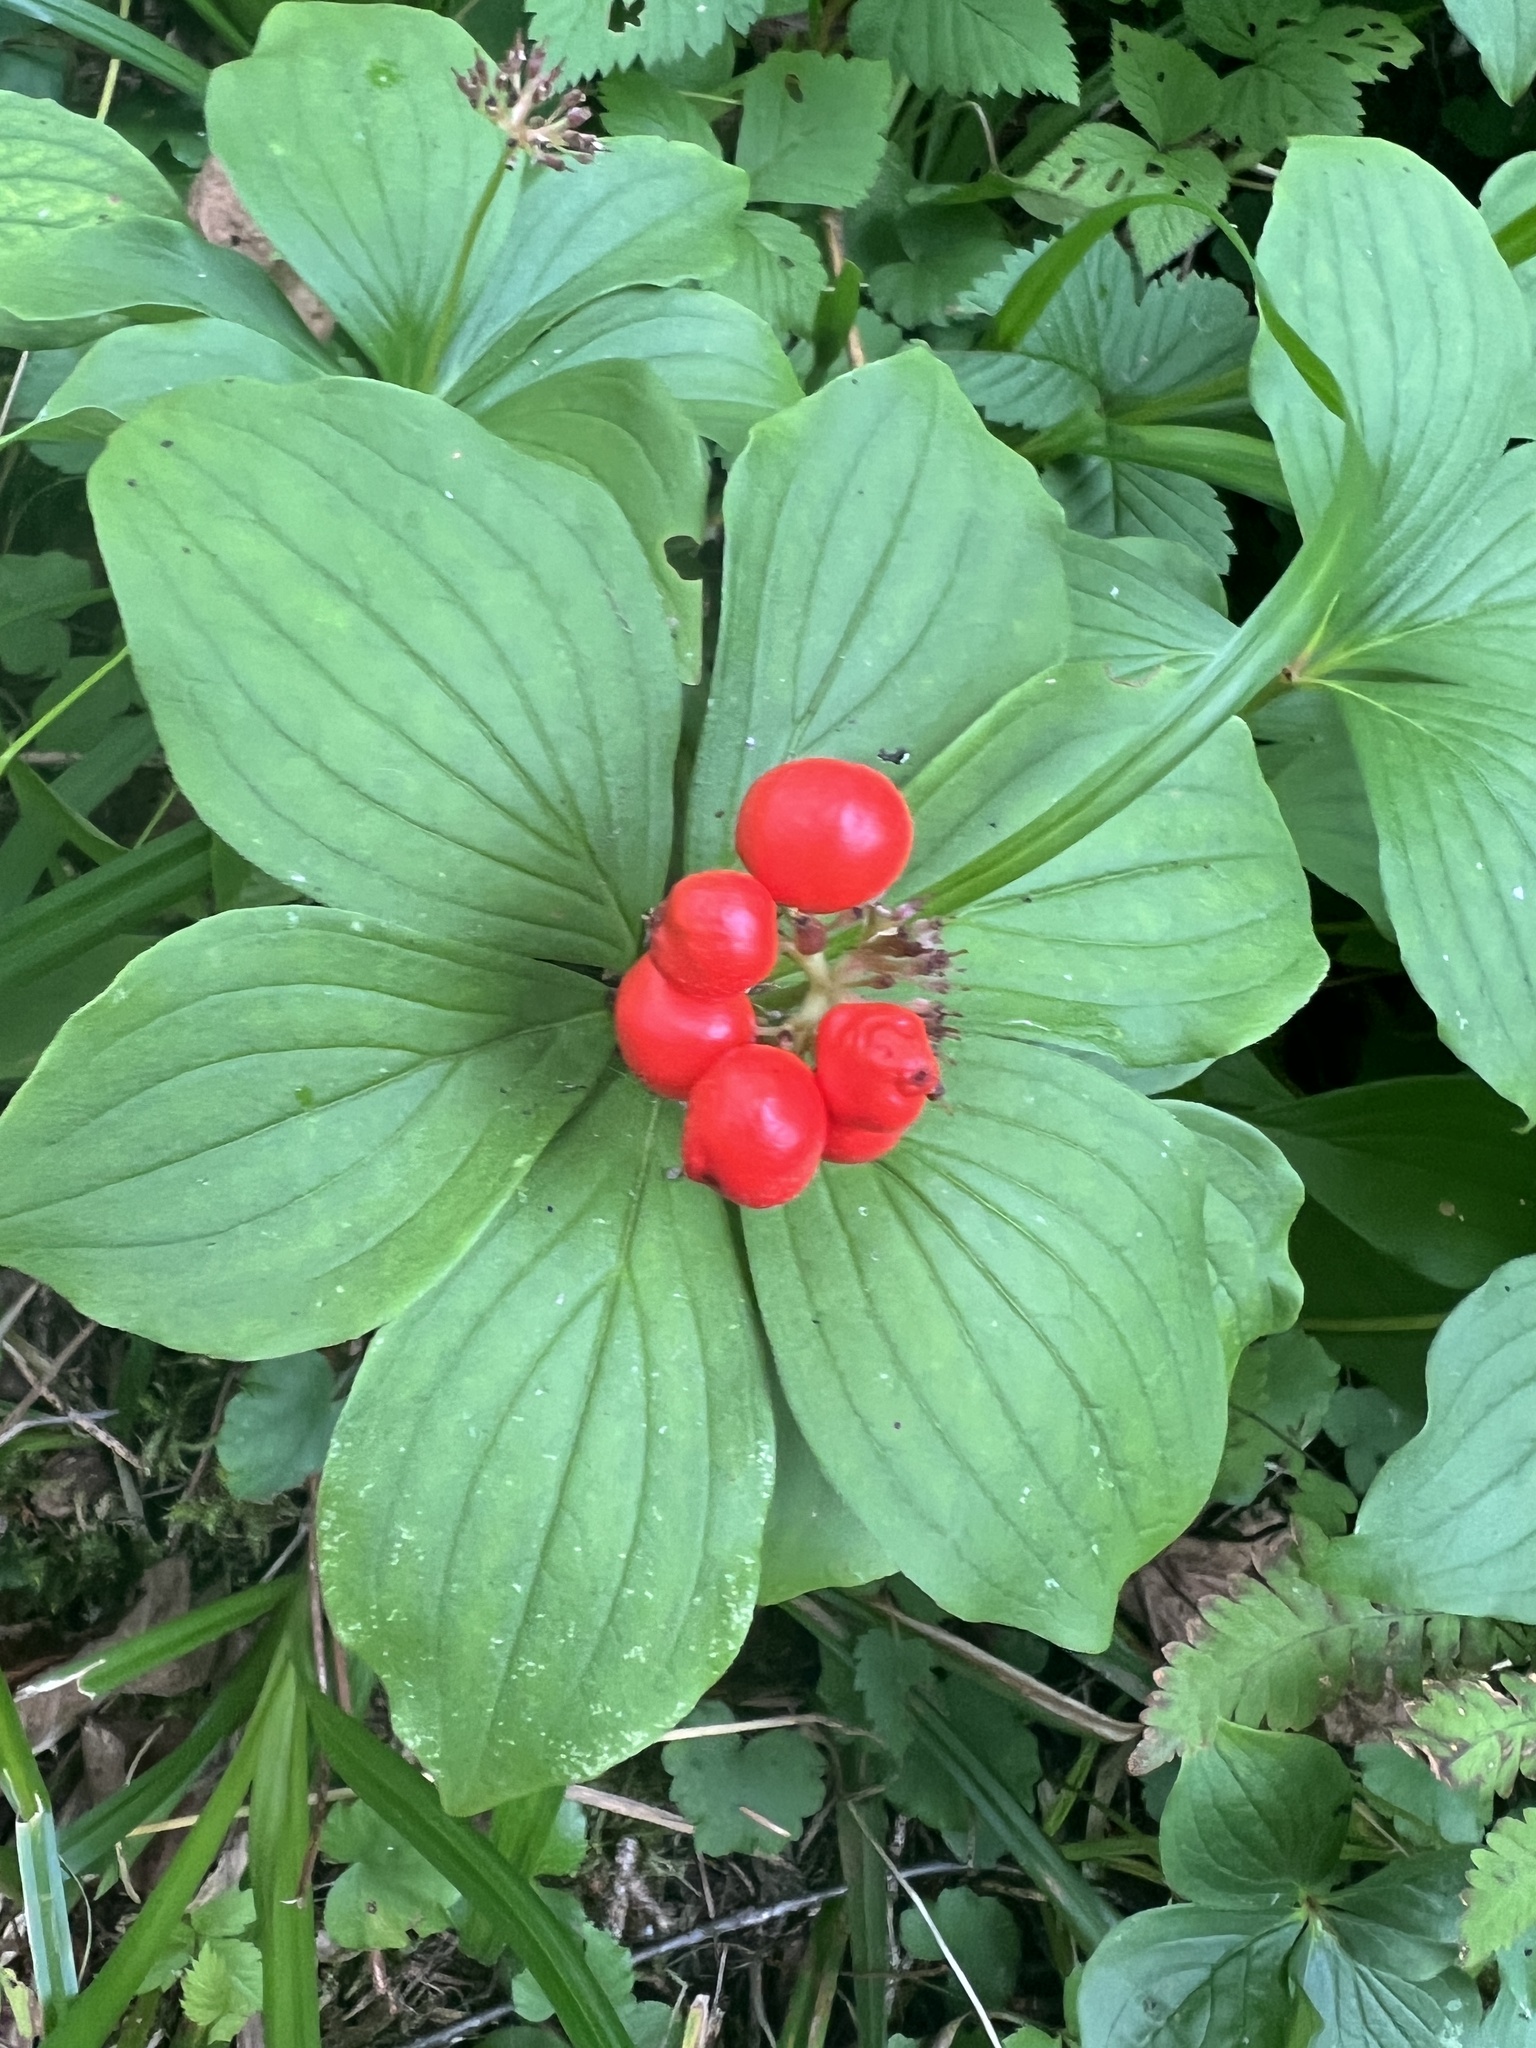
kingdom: Plantae
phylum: Tracheophyta
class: Magnoliopsida
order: Cornales
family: Cornaceae
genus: Cornus
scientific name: Cornus canadensis
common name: Creeping dogwood
